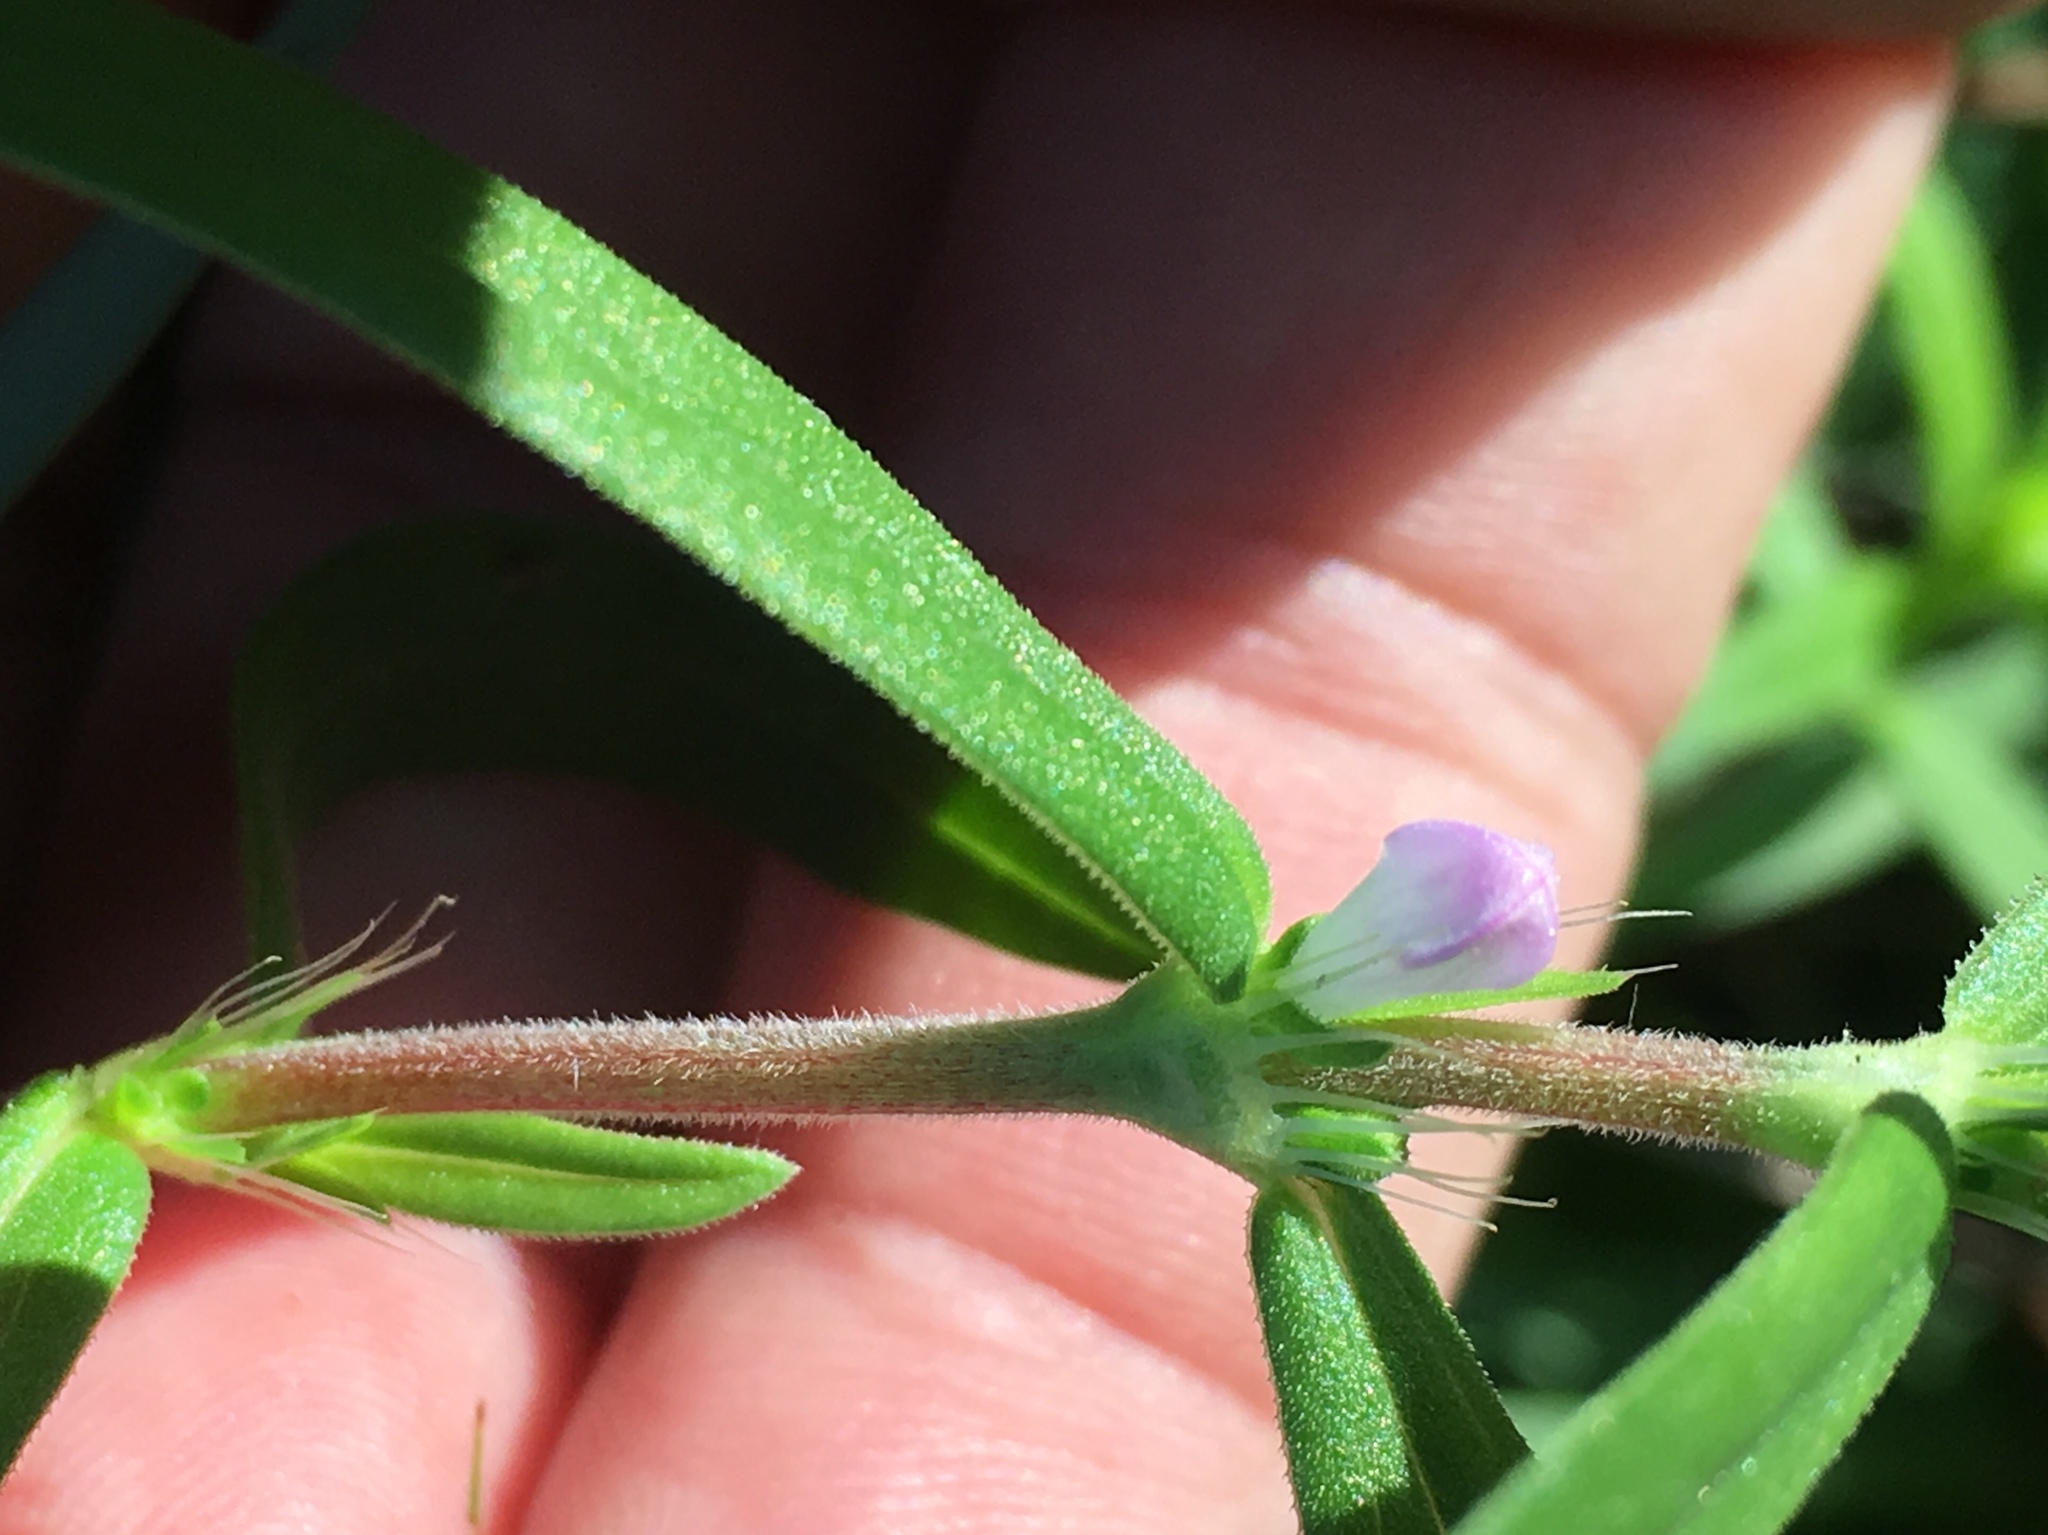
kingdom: Plantae
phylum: Tracheophyta
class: Magnoliopsida
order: Gentianales
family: Rubiaceae
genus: Hexasepalum
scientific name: Hexasepalum teres
